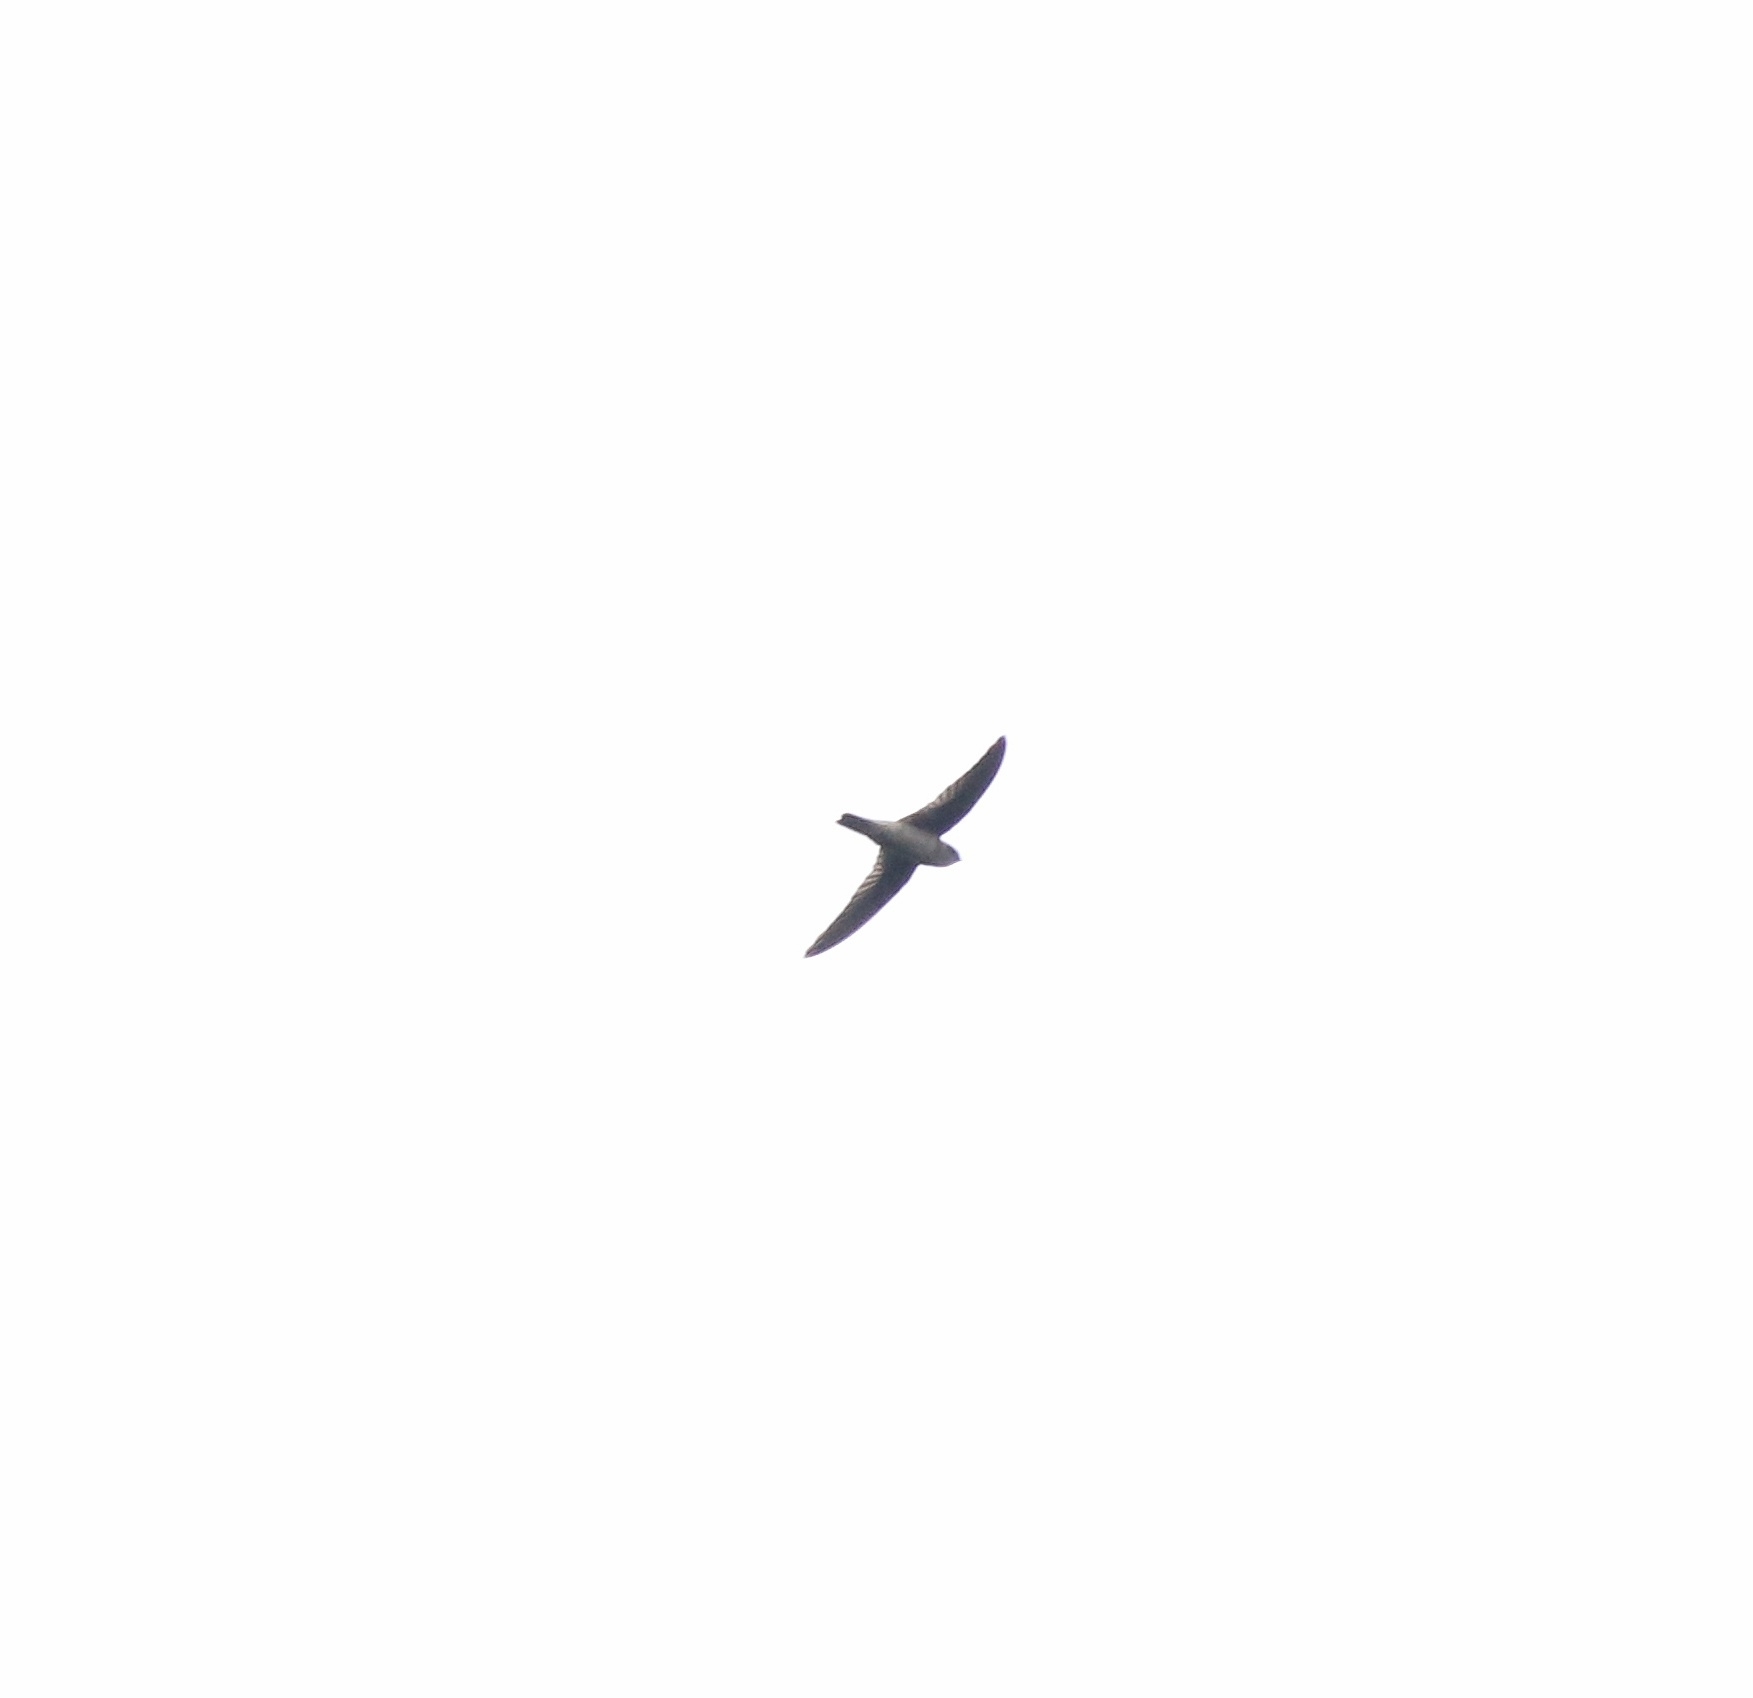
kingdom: Animalia
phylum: Chordata
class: Aves
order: Apodiformes
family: Apodidae
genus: Aerodramus
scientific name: Aerodramus unicolor
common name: Indian swiftlet
